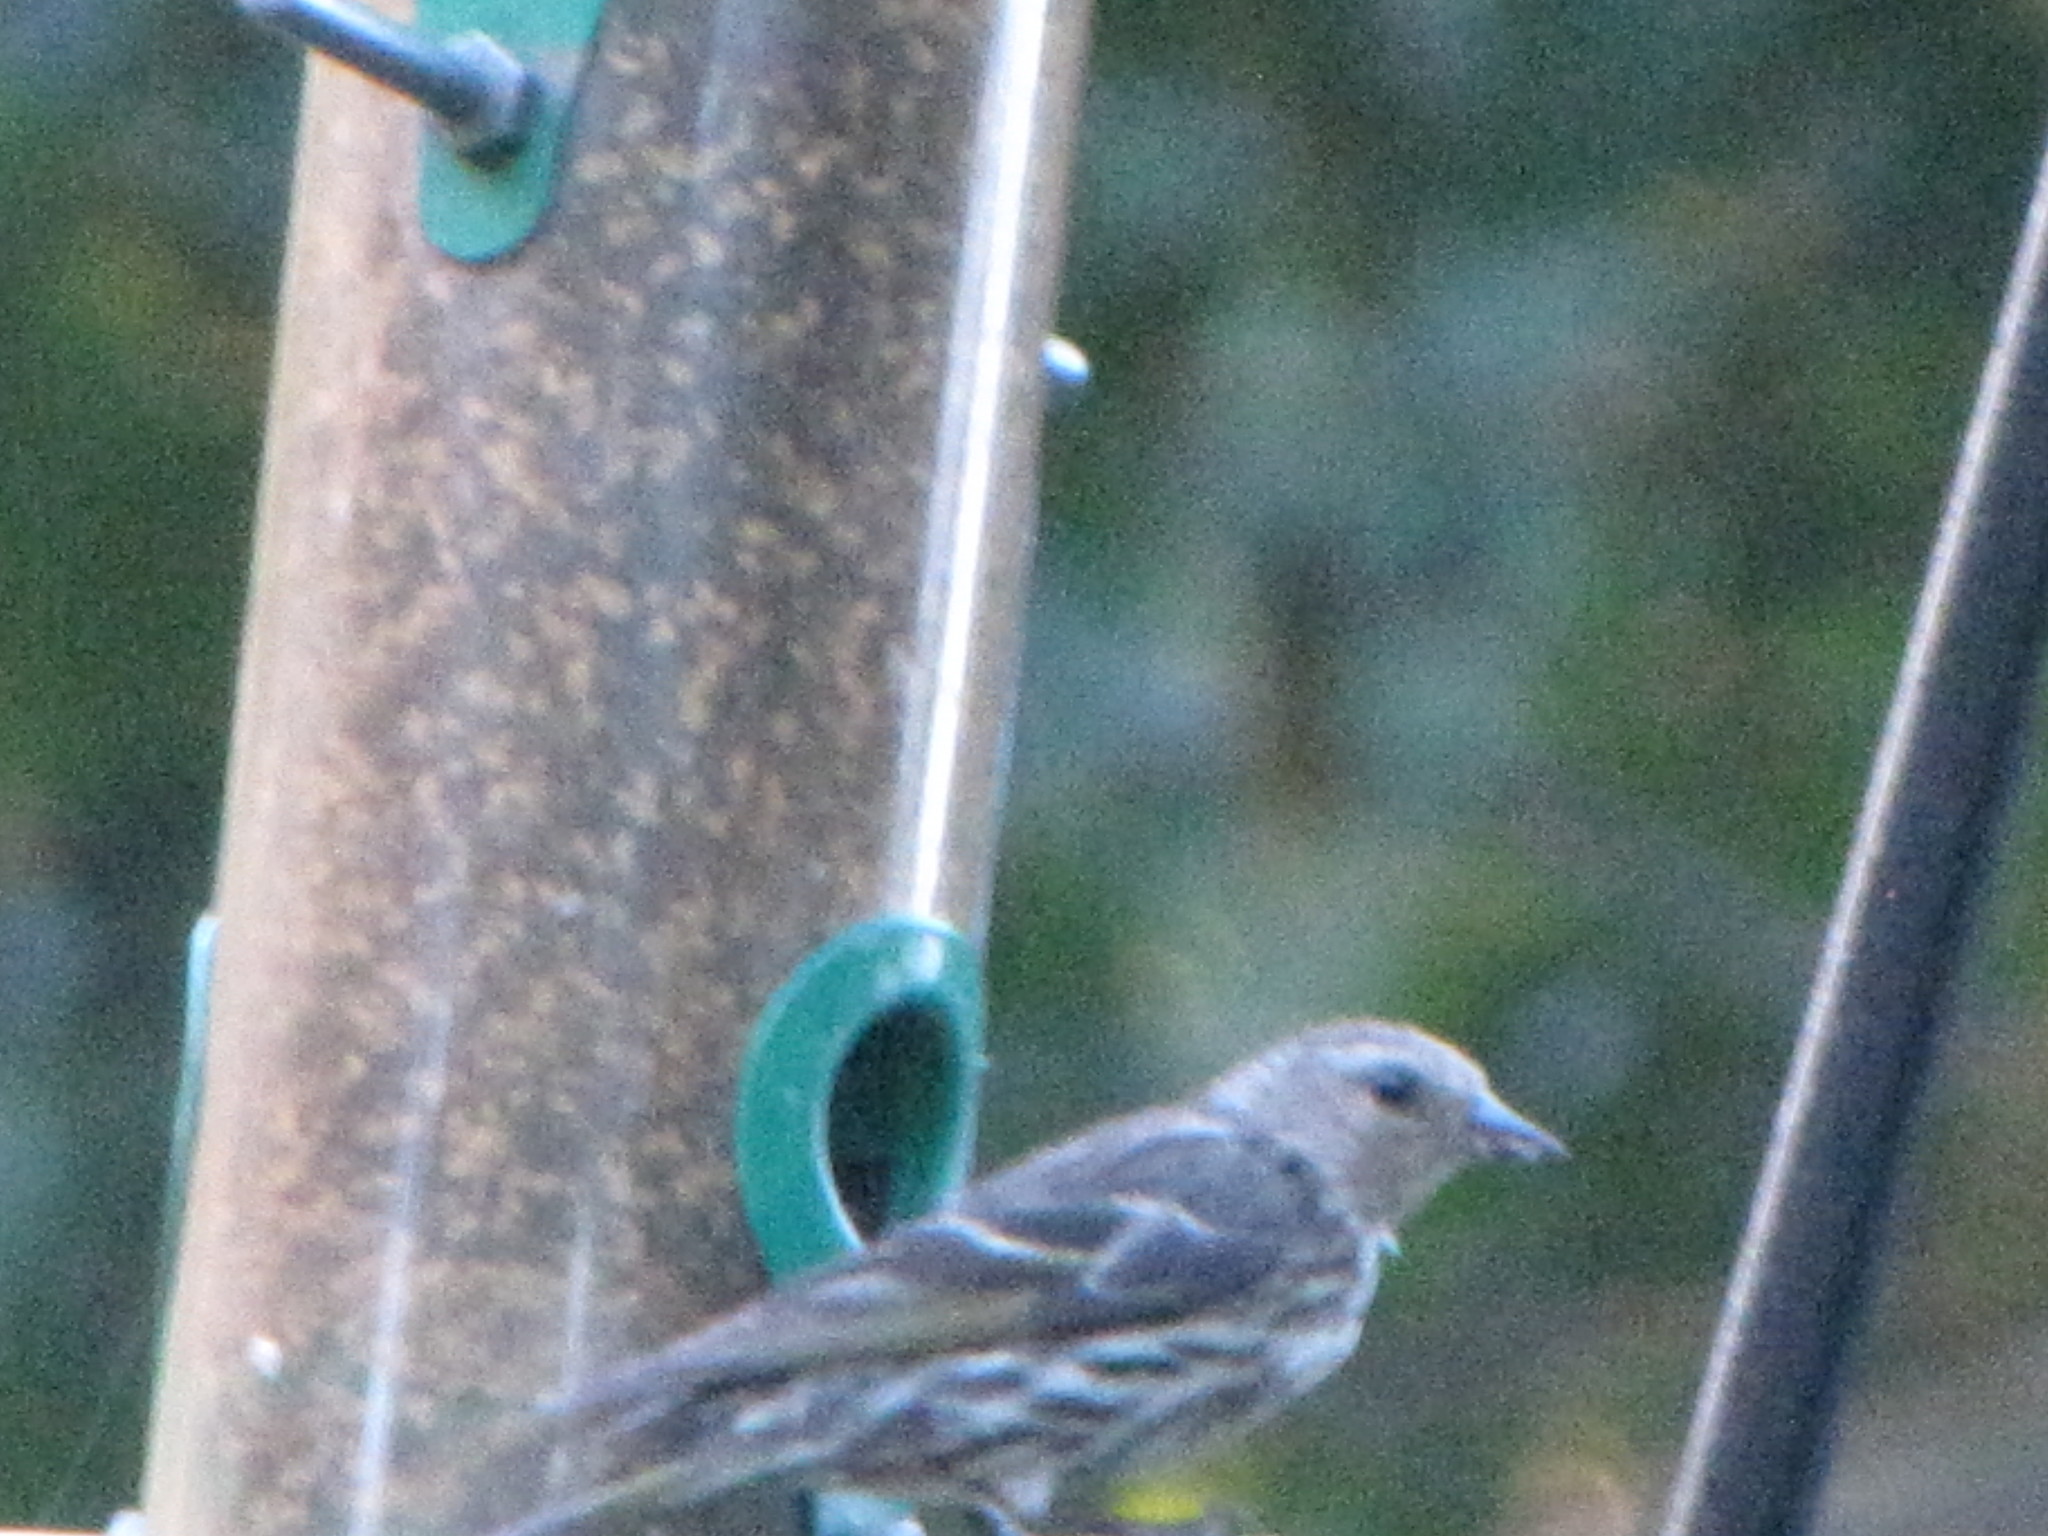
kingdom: Animalia
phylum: Chordata
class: Aves
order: Passeriformes
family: Fringillidae
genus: Spinus
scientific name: Spinus pinus
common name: Pine siskin
